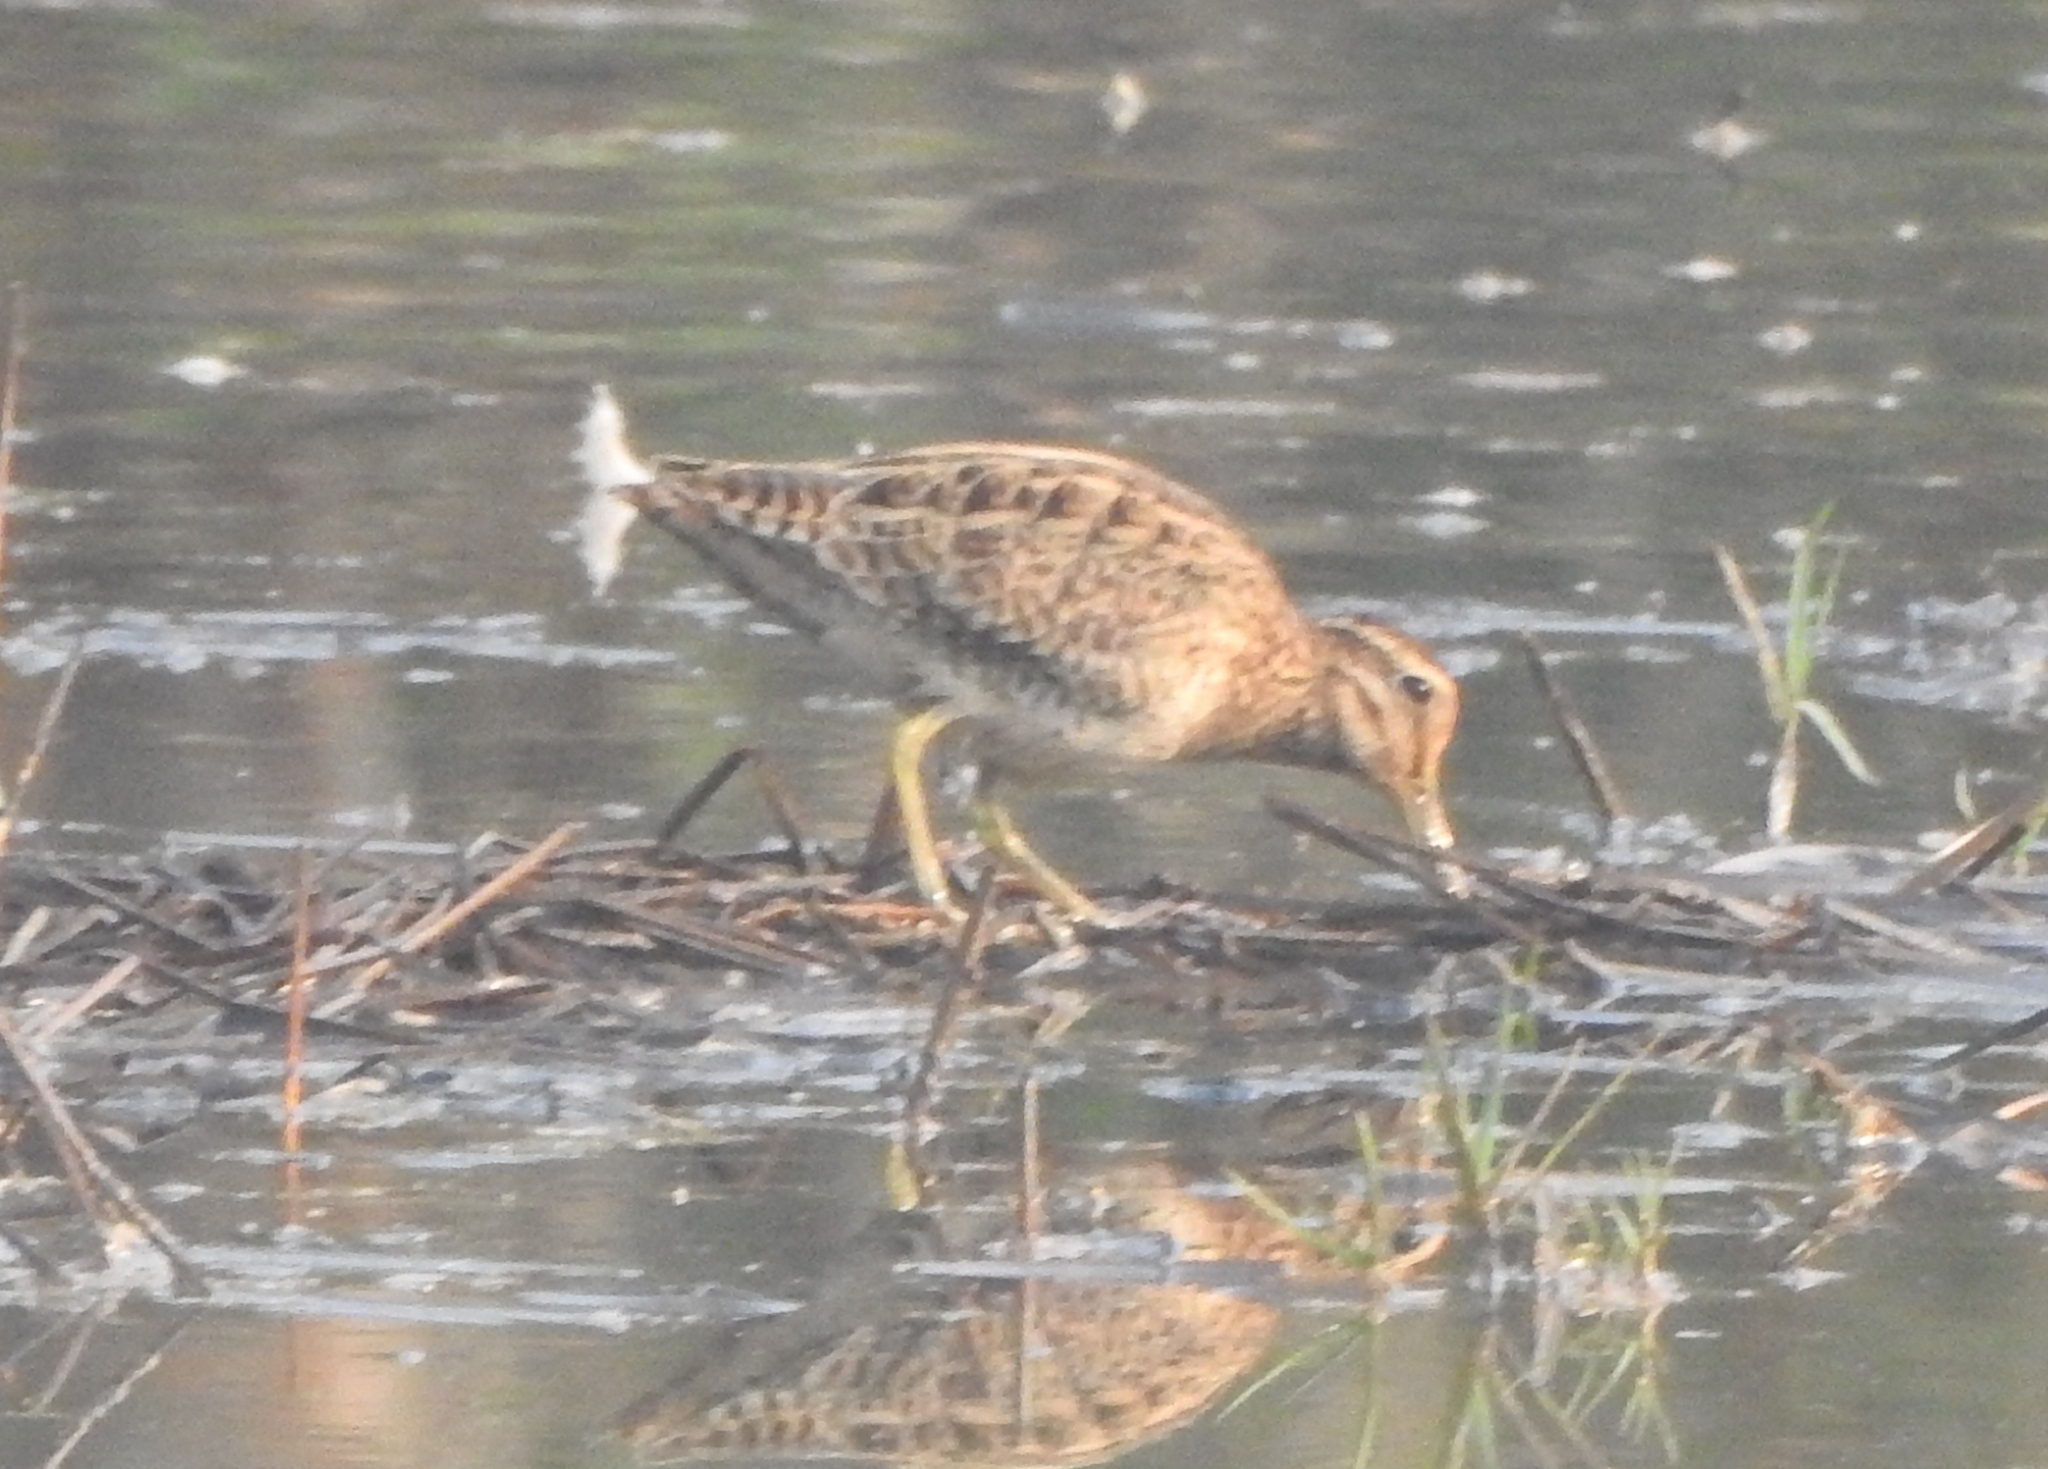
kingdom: Animalia
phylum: Chordata
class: Aves
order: Charadriiformes
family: Scolopacidae
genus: Gallinago
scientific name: Gallinago stenura
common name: Pin-tailed snipe
